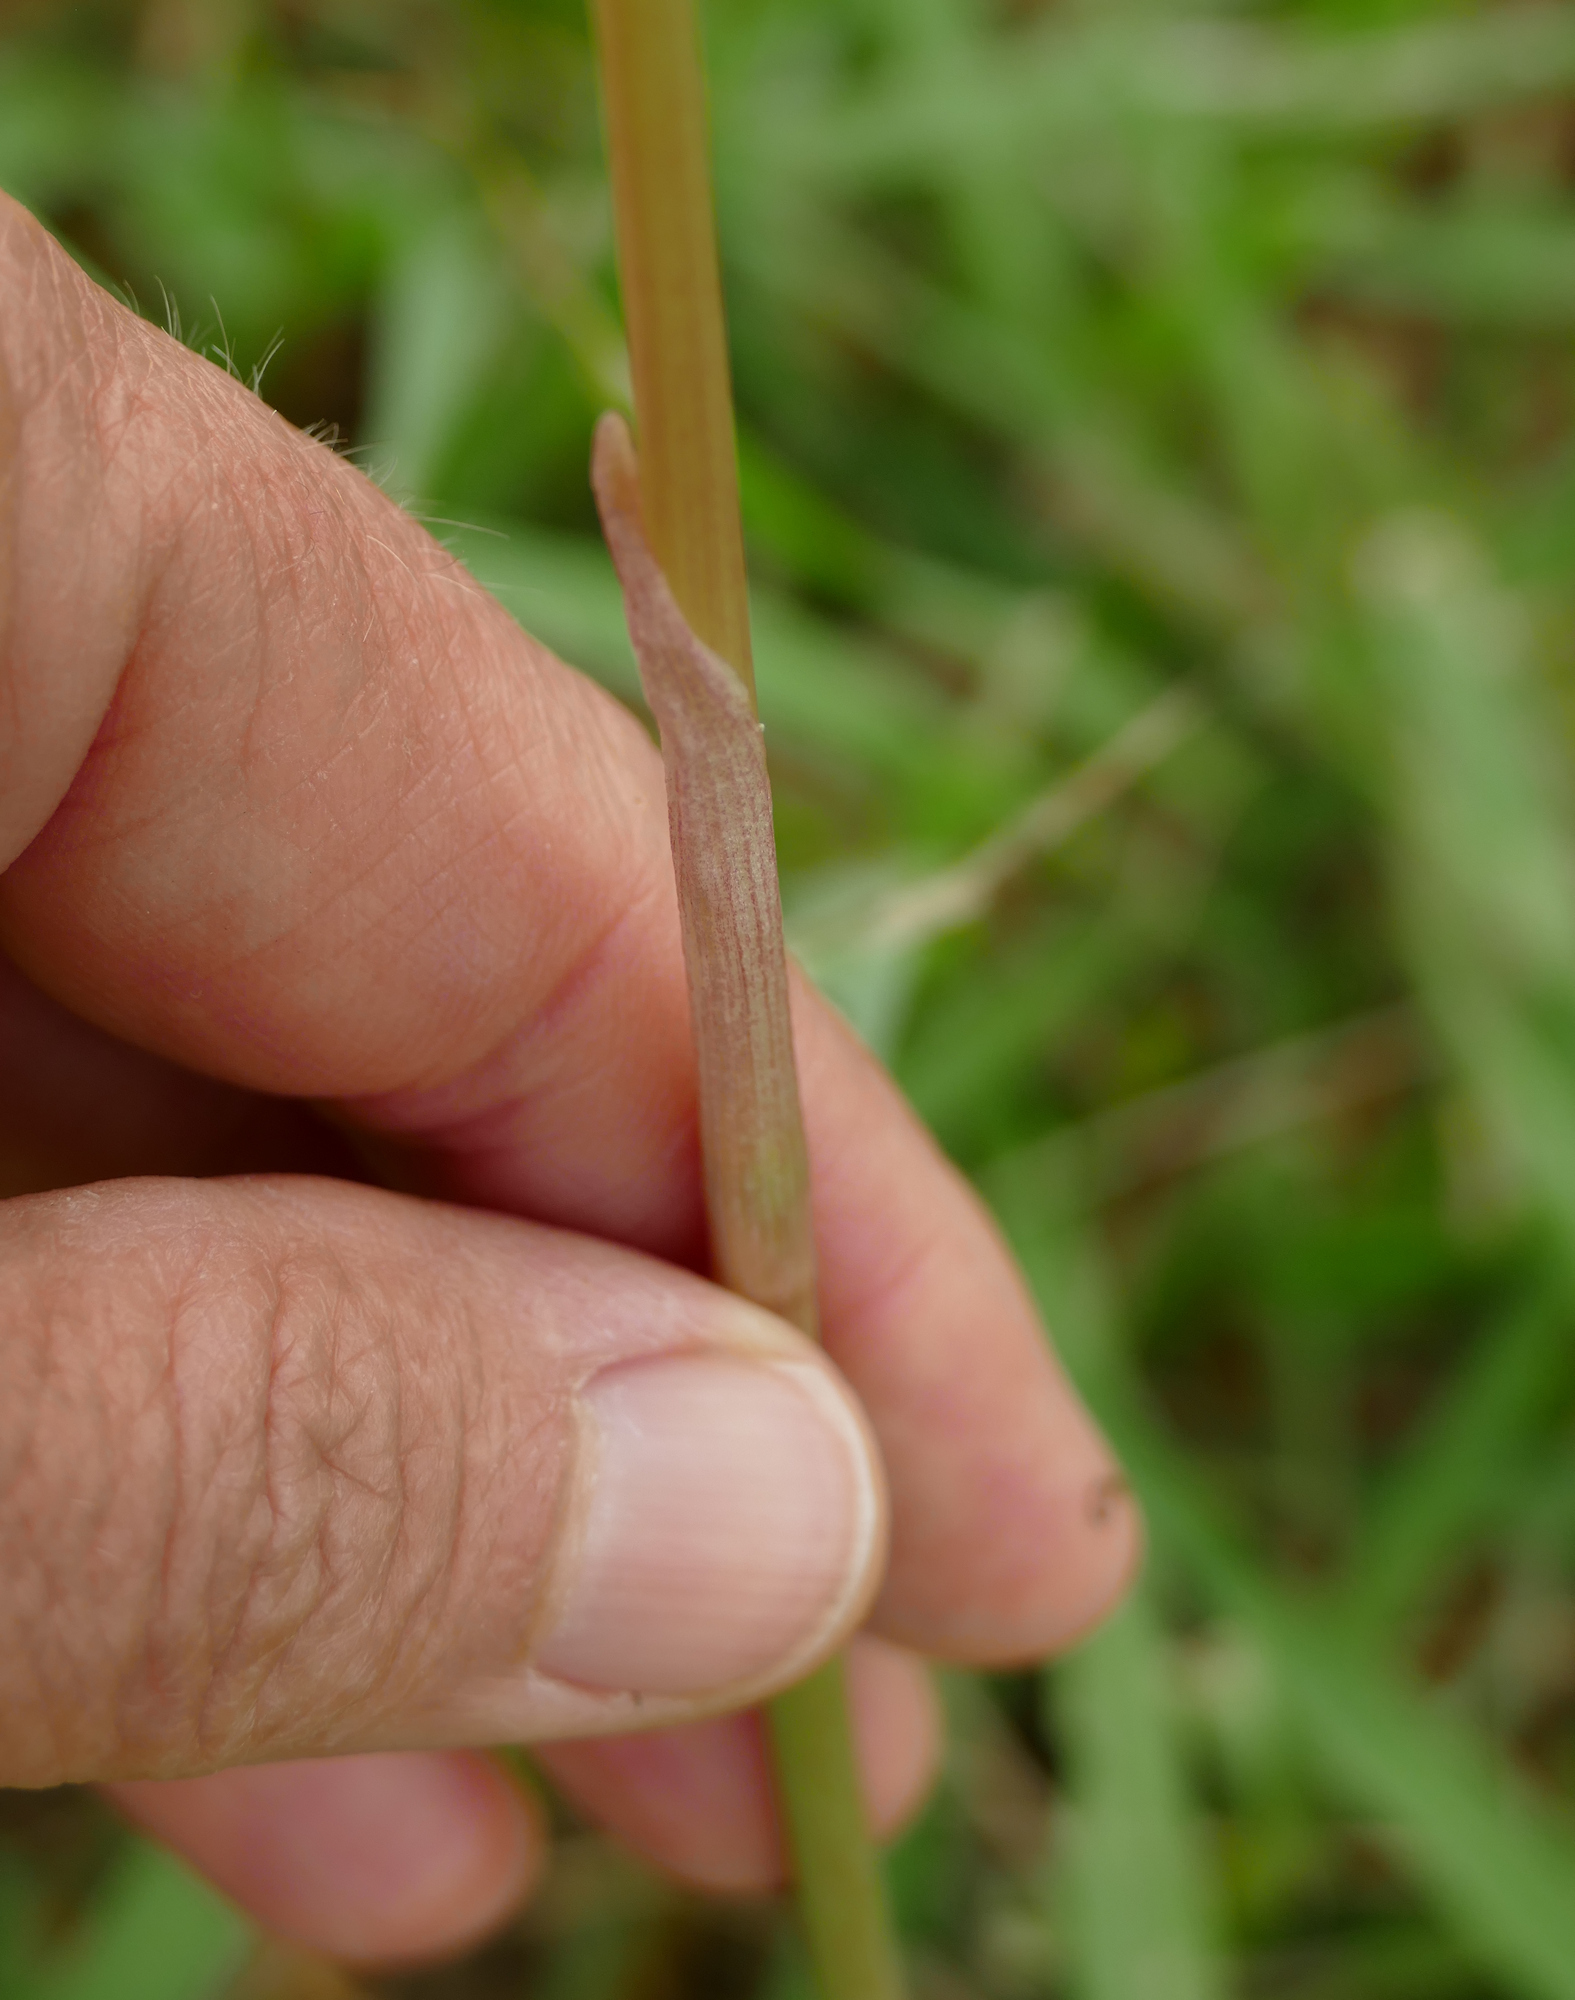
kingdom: Plantae
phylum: Tracheophyta
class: Liliopsida
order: Asparagales
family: Amaryllidaceae
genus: Zephyranthes
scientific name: Zephyranthes chlorosolen
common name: Evening rain-lily
